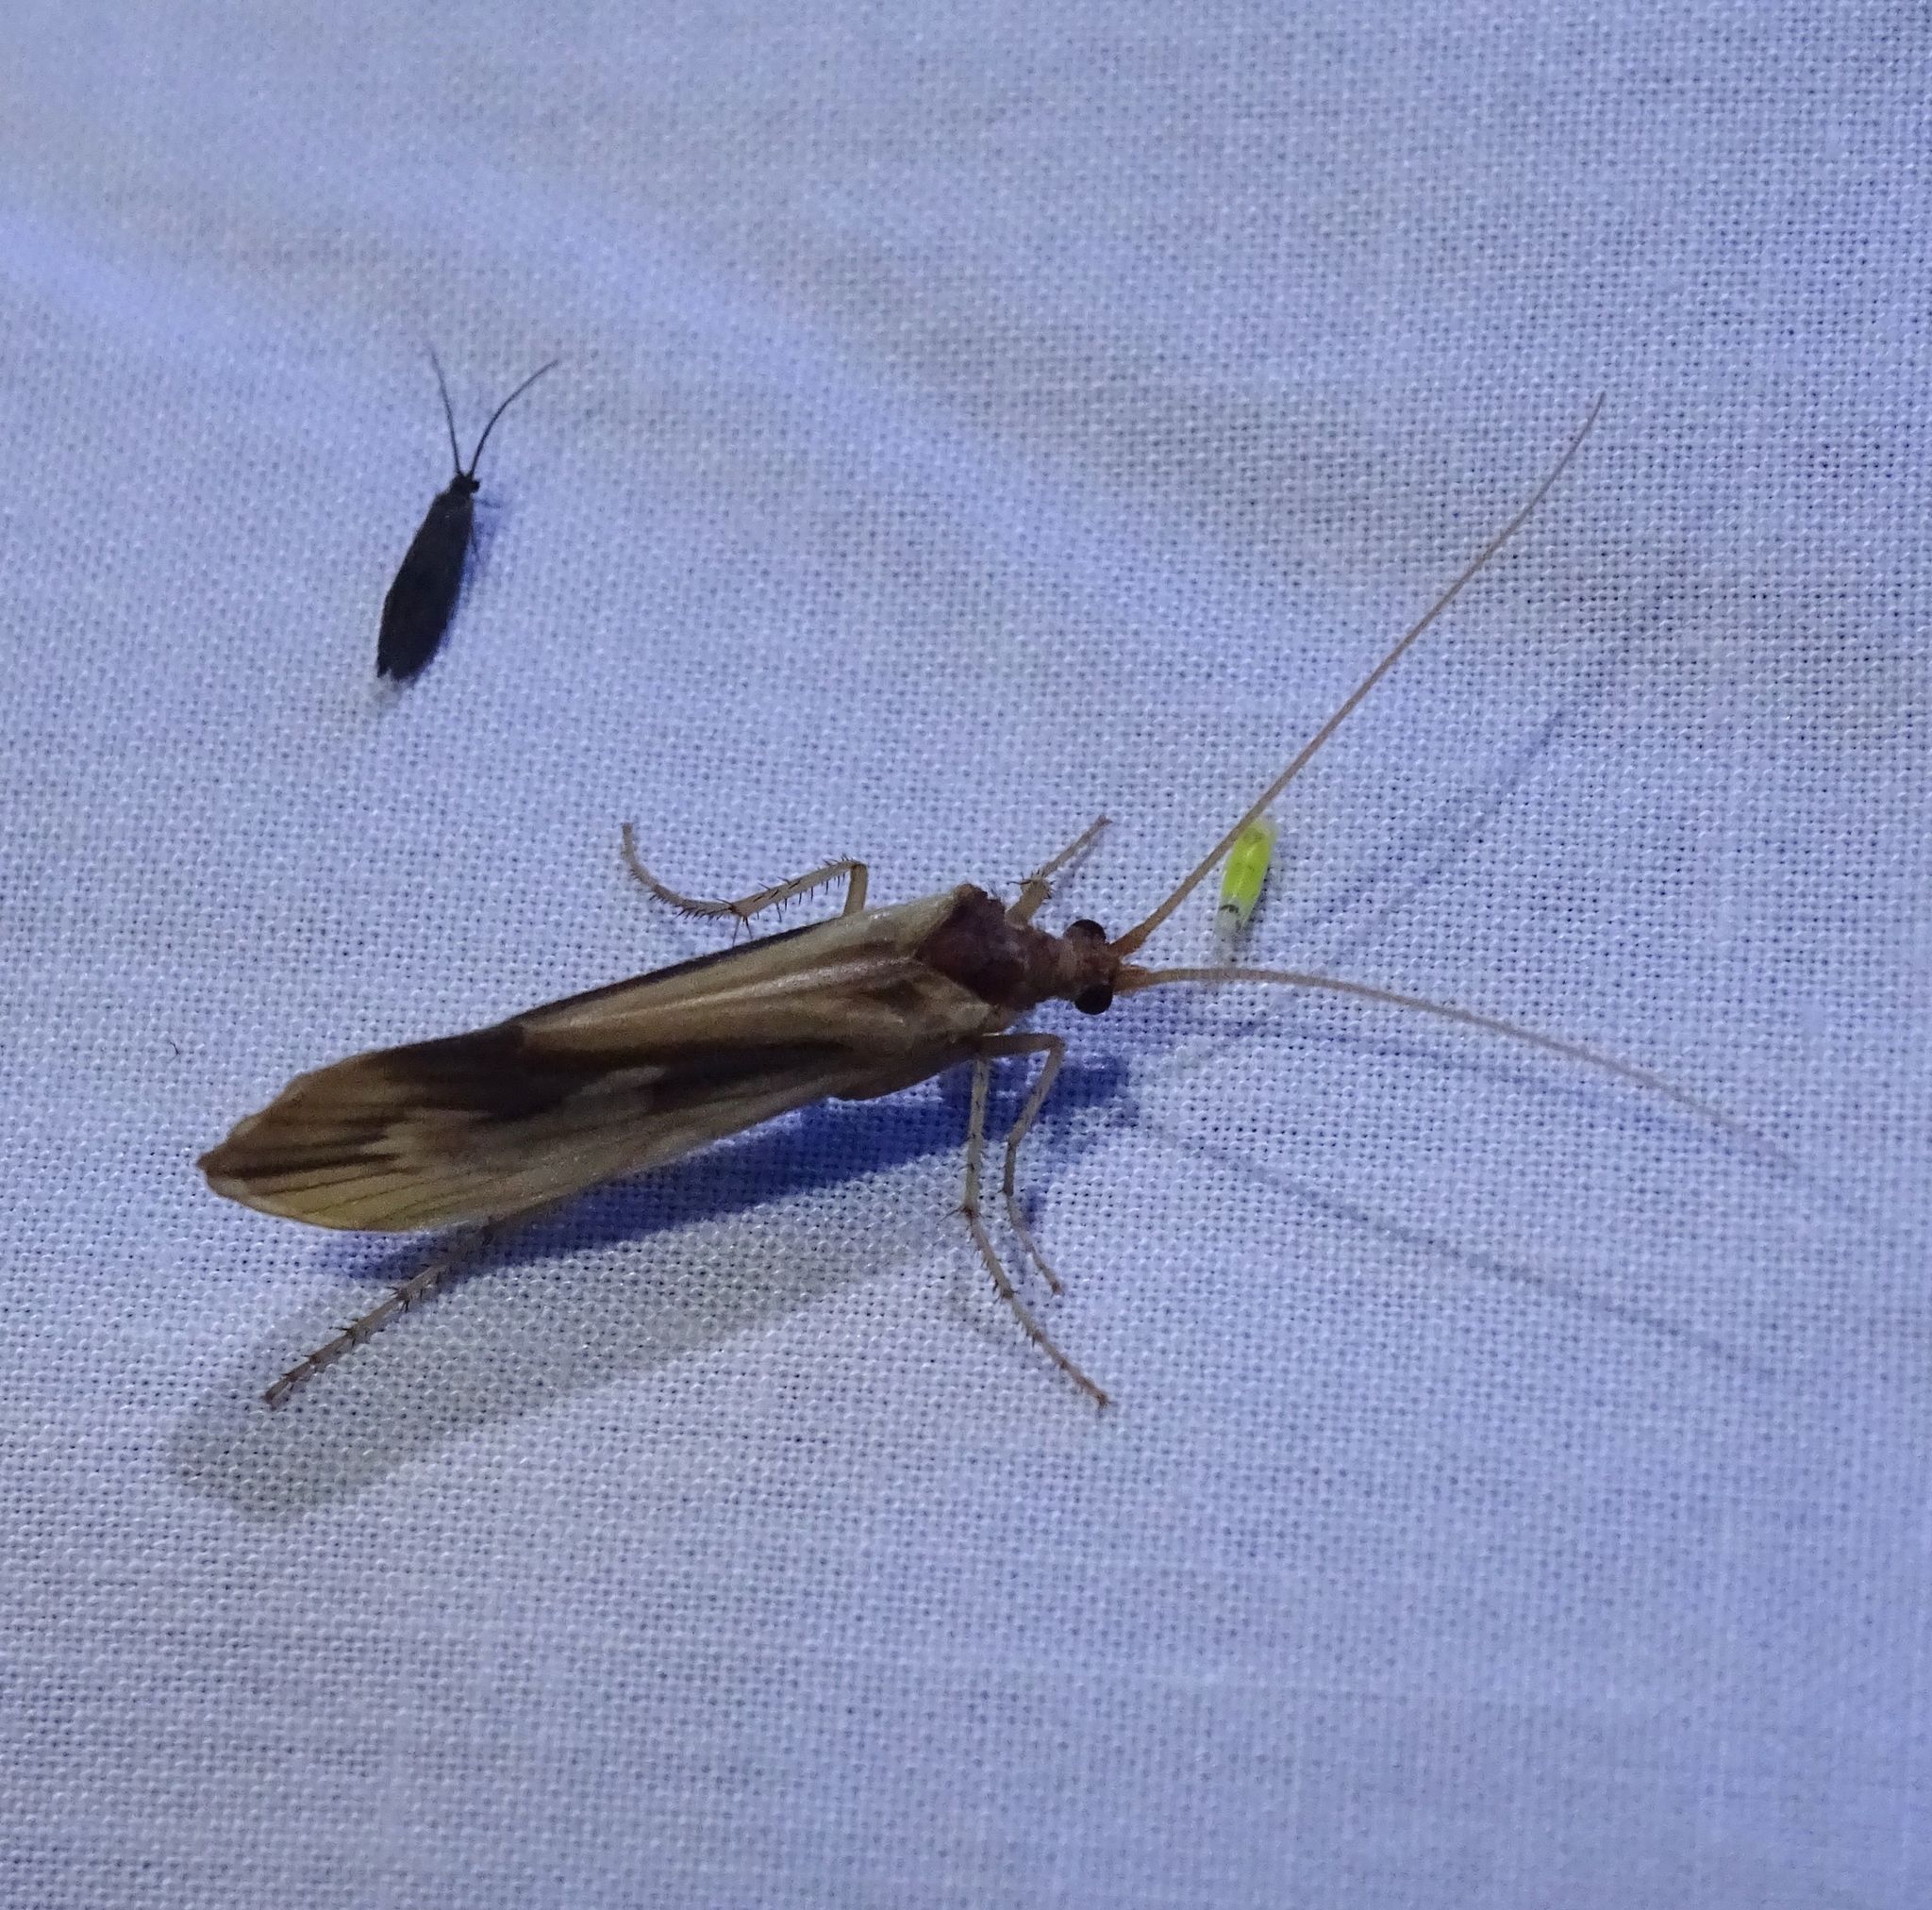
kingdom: Animalia
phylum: Arthropoda
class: Insecta
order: Trichoptera
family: Limnephilidae
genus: Platycentropus
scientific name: Platycentropus radiatus
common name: Chocolate-and-cream sedge
